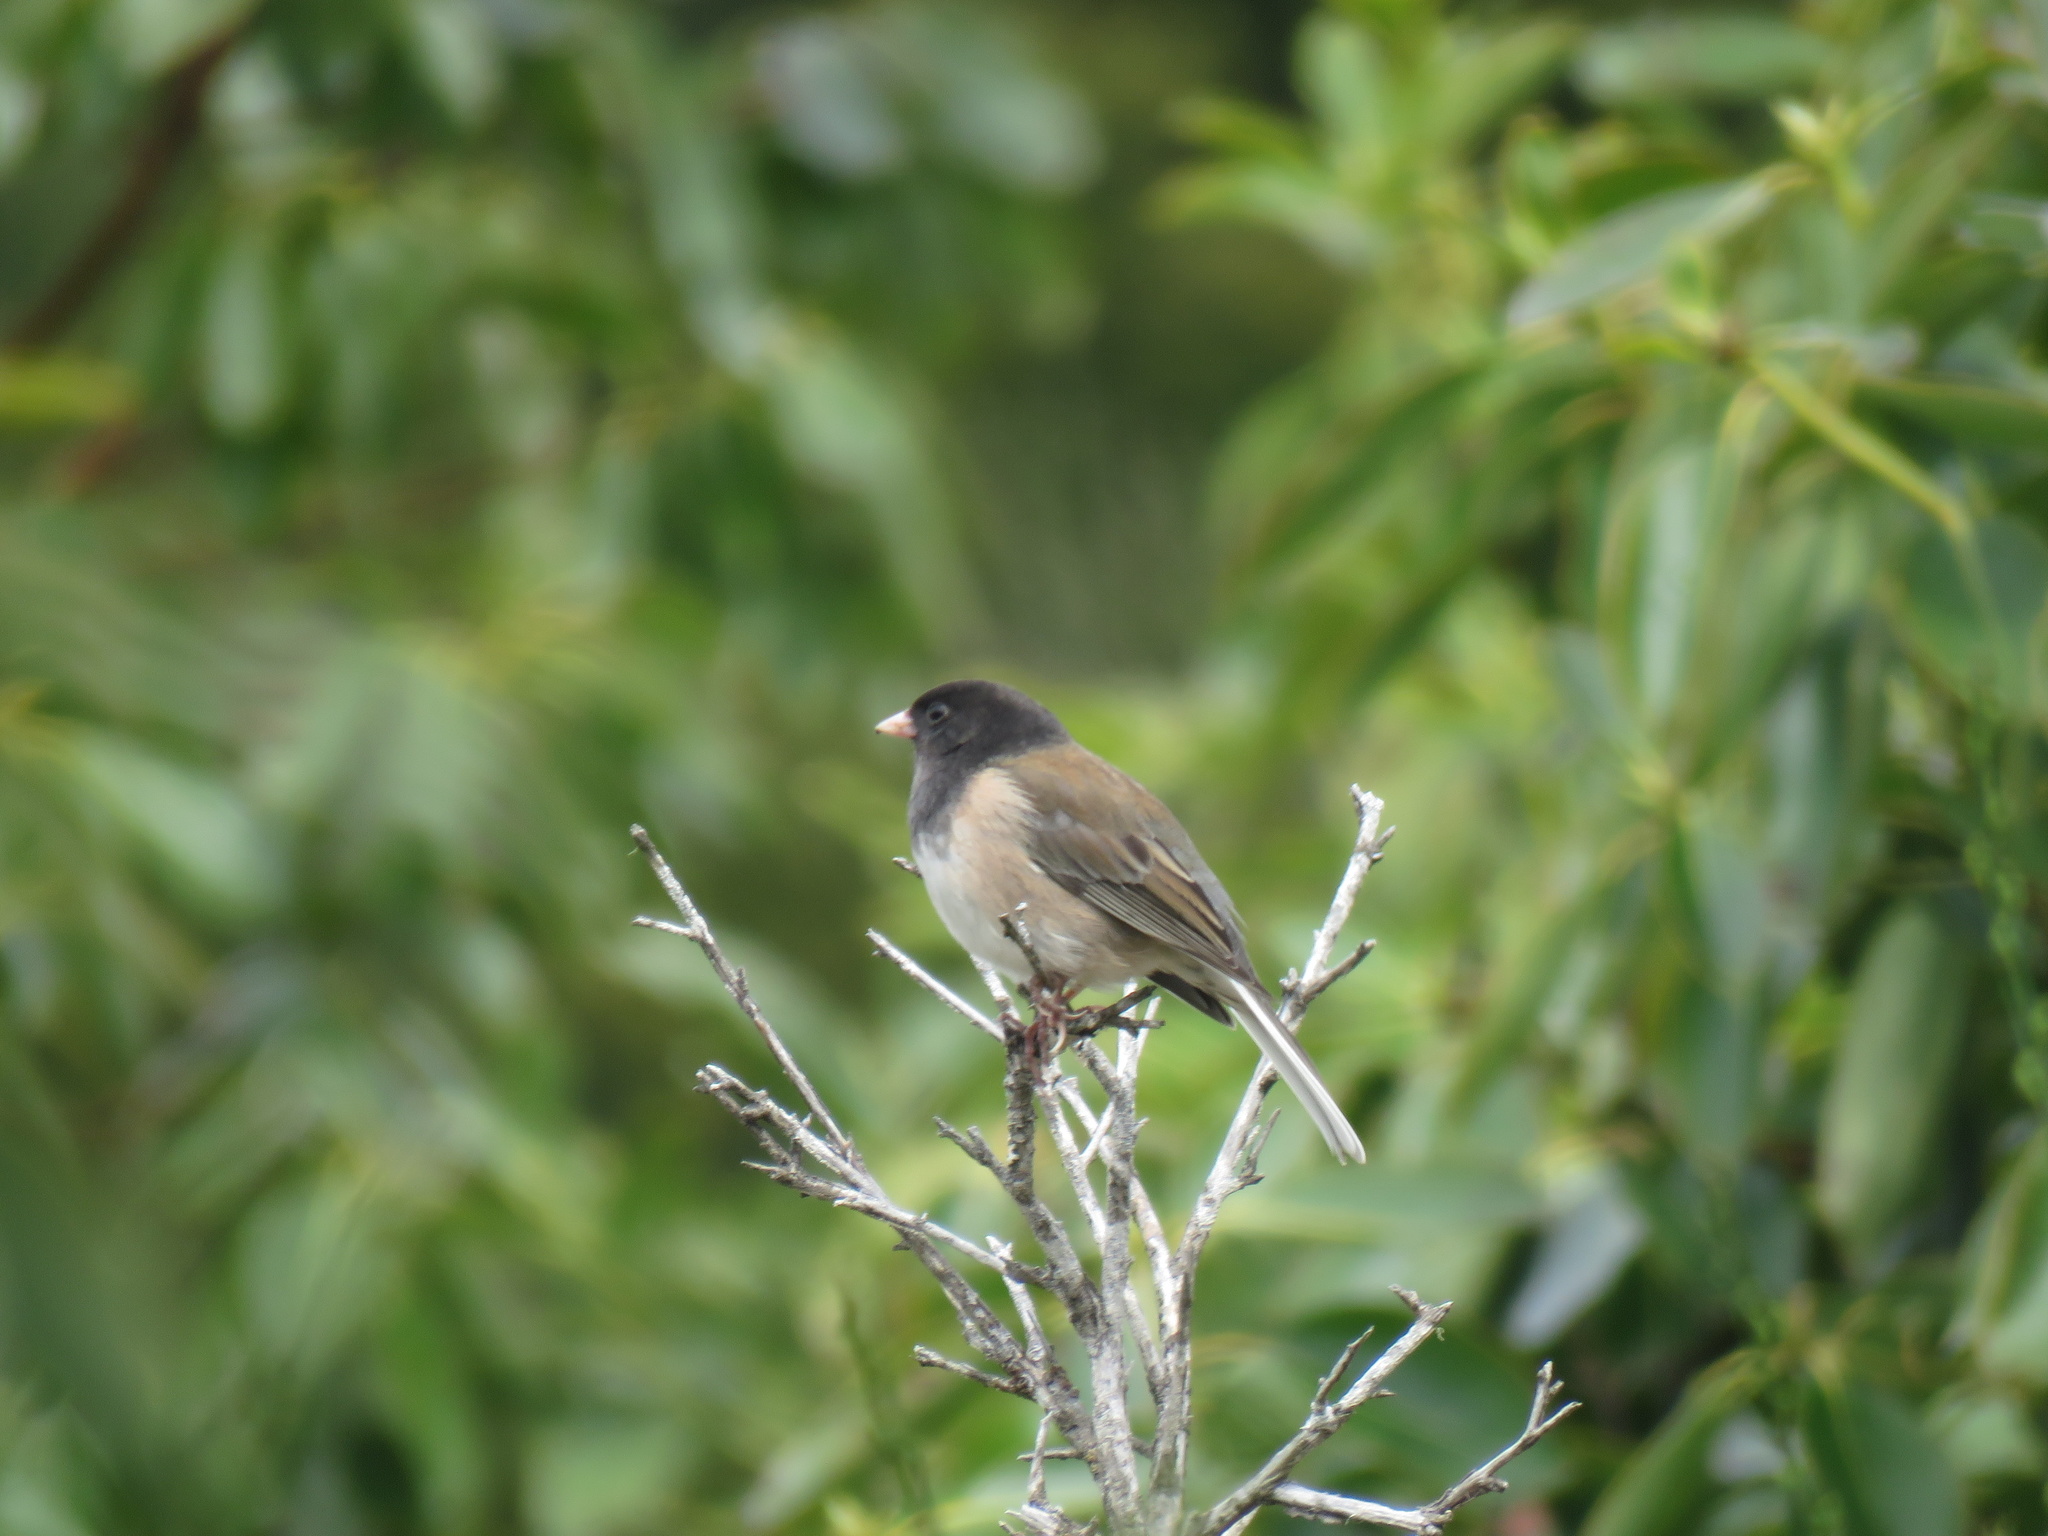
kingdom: Animalia
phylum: Chordata
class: Aves
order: Passeriformes
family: Passerellidae
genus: Junco
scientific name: Junco hyemalis
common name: Dark-eyed junco
